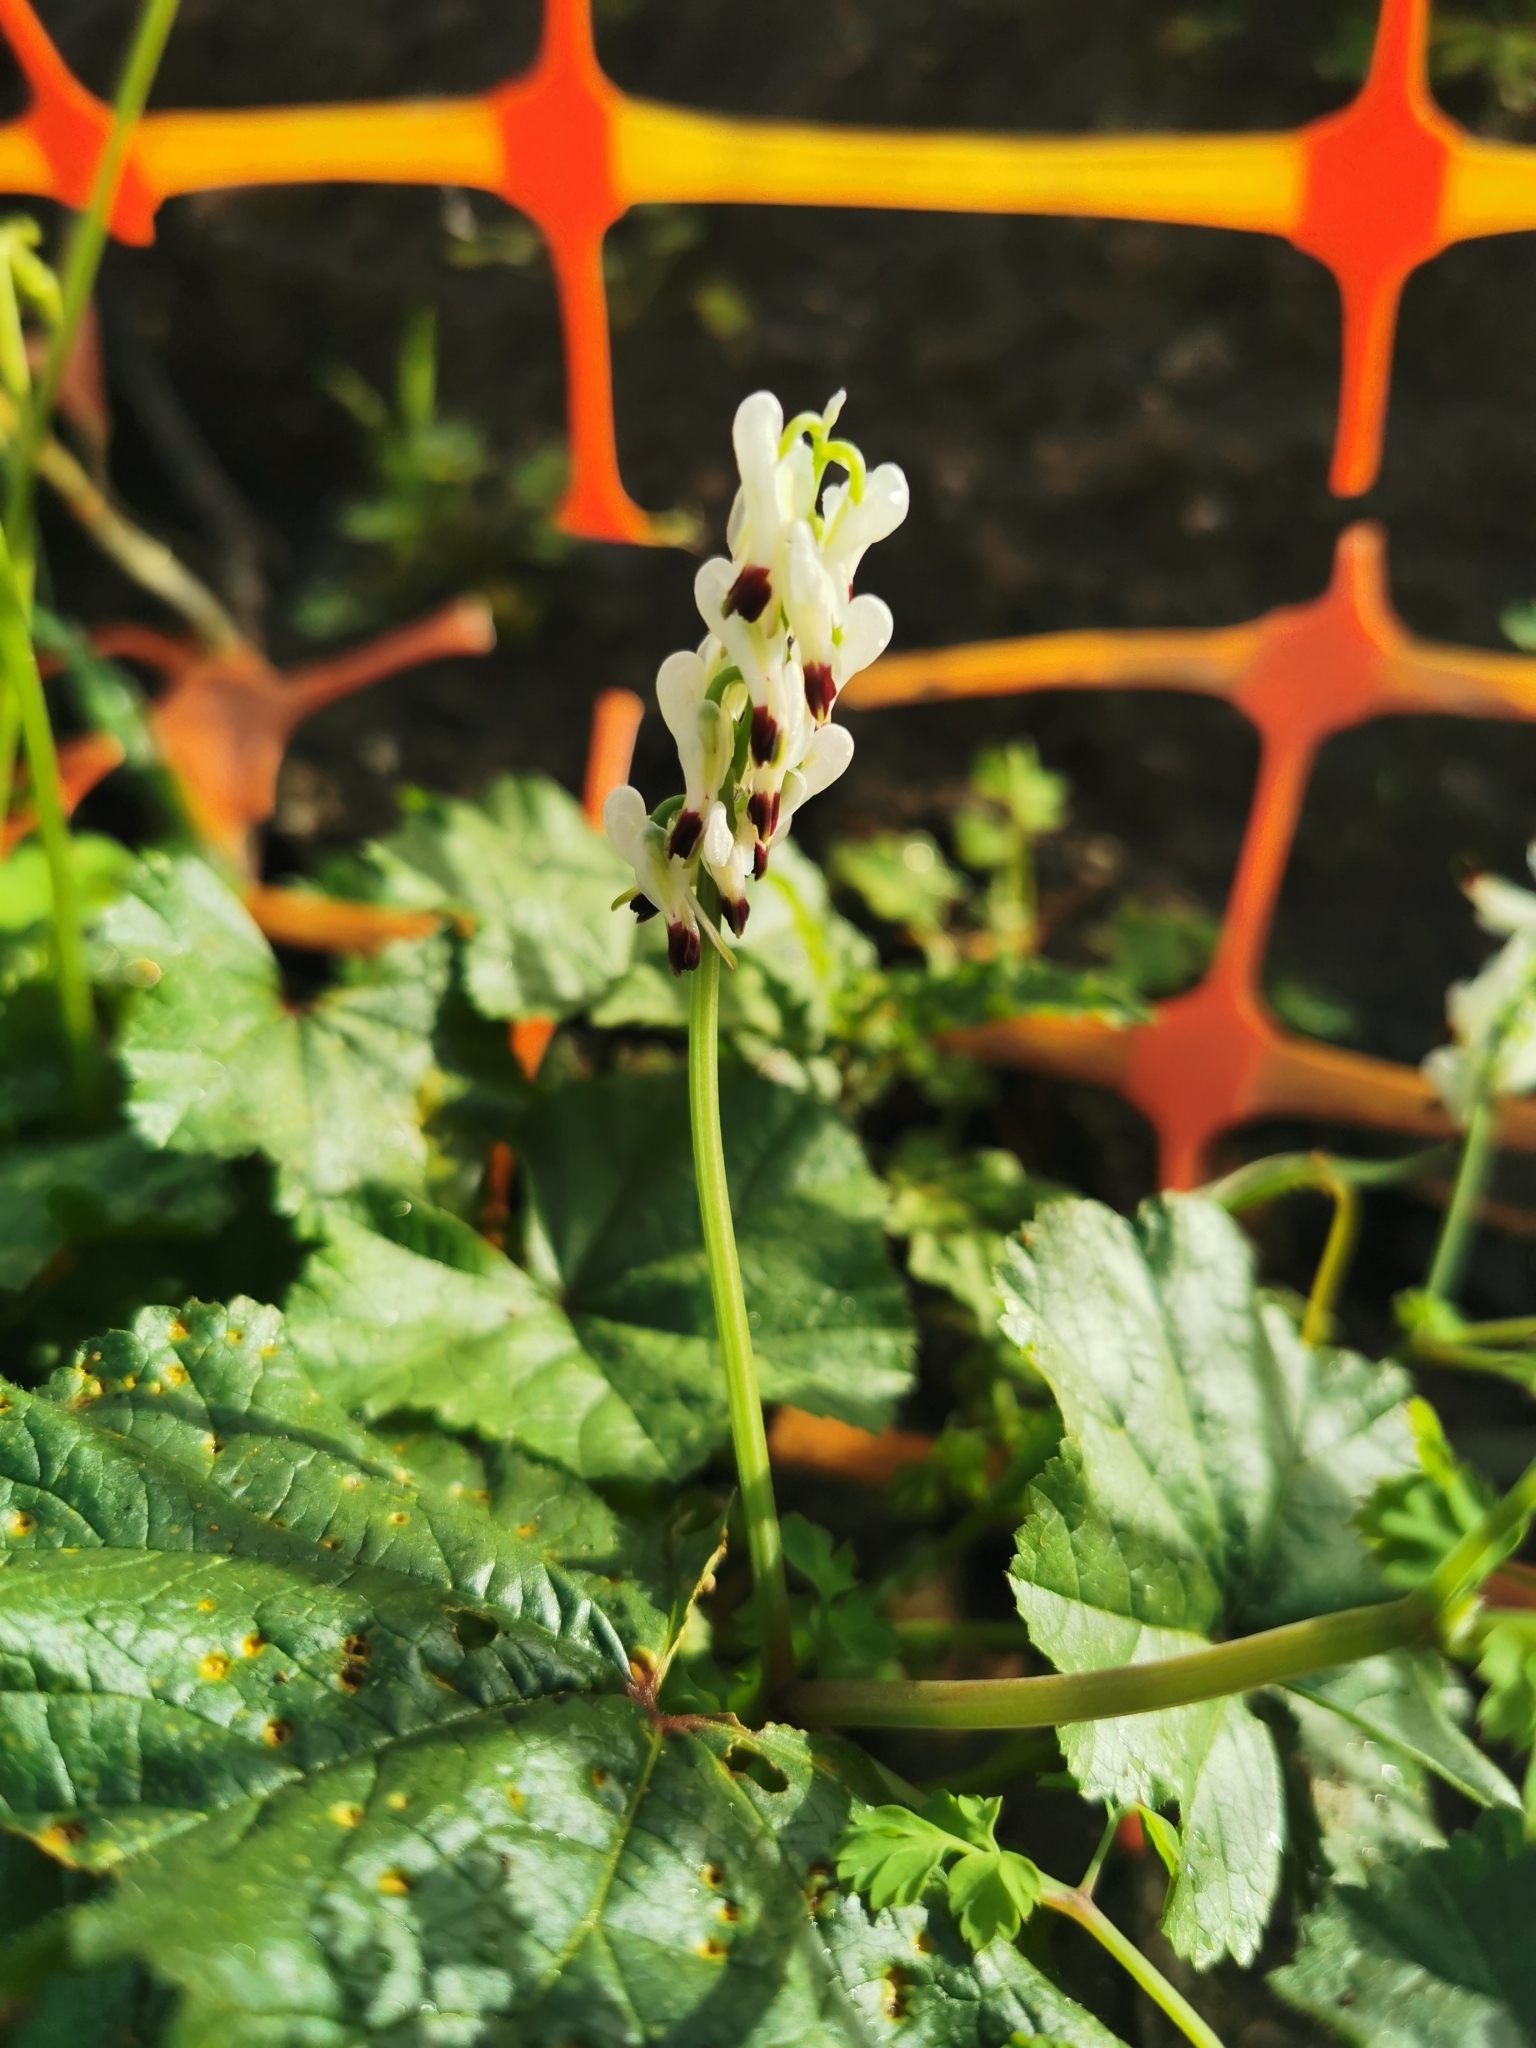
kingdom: Plantae
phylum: Tracheophyta
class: Magnoliopsida
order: Ranunculales
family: Papaveraceae
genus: Fumaria
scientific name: Fumaria capreolata
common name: White ramping-fumitory
